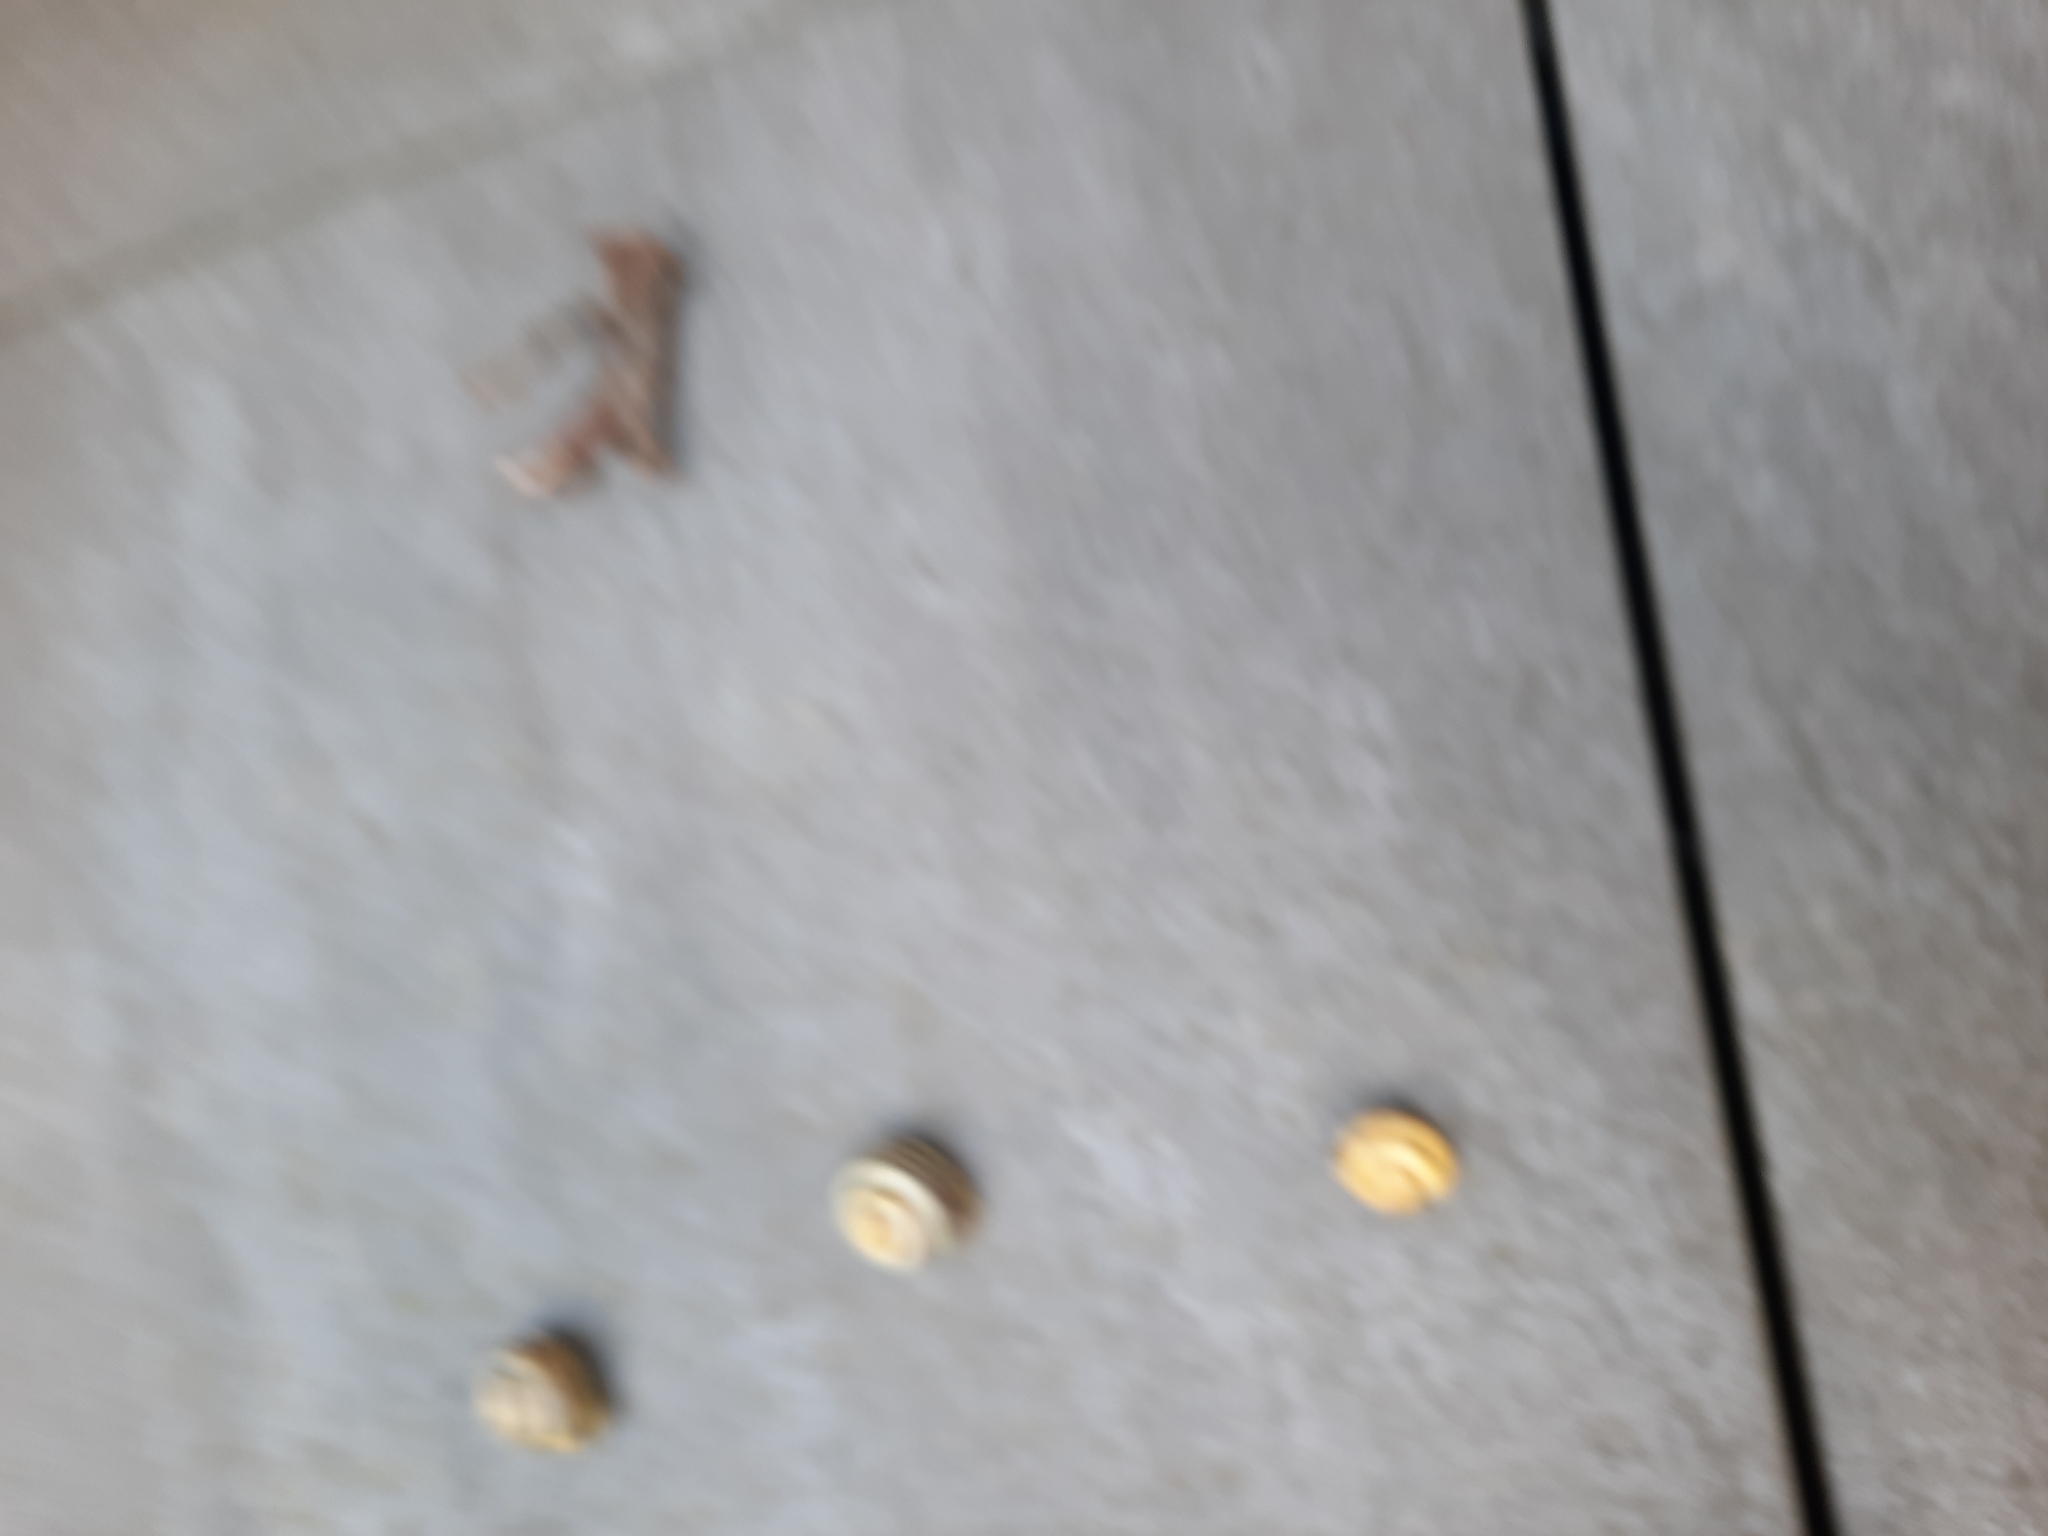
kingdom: Animalia
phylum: Mollusca
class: Gastropoda
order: Stylommatophora
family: Helicidae
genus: Cepaea
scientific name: Cepaea
